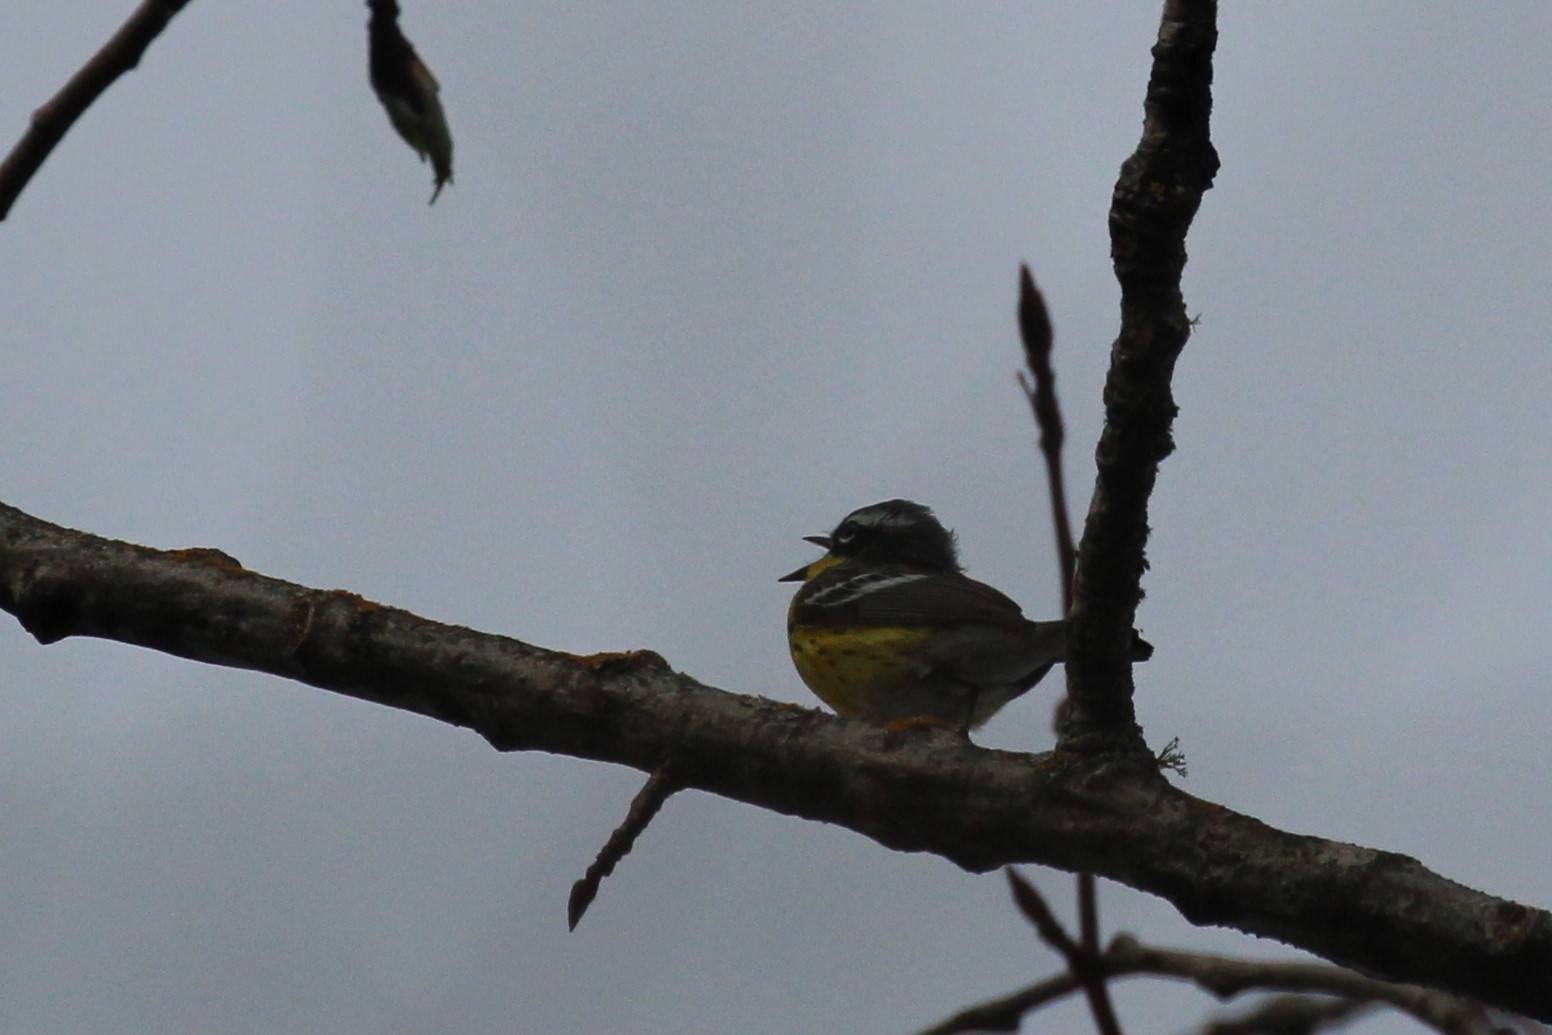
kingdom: Animalia
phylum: Chordata
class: Aves
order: Passeriformes
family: Parulidae
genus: Setophaga
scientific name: Setophaga magnolia
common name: Magnolia warbler
